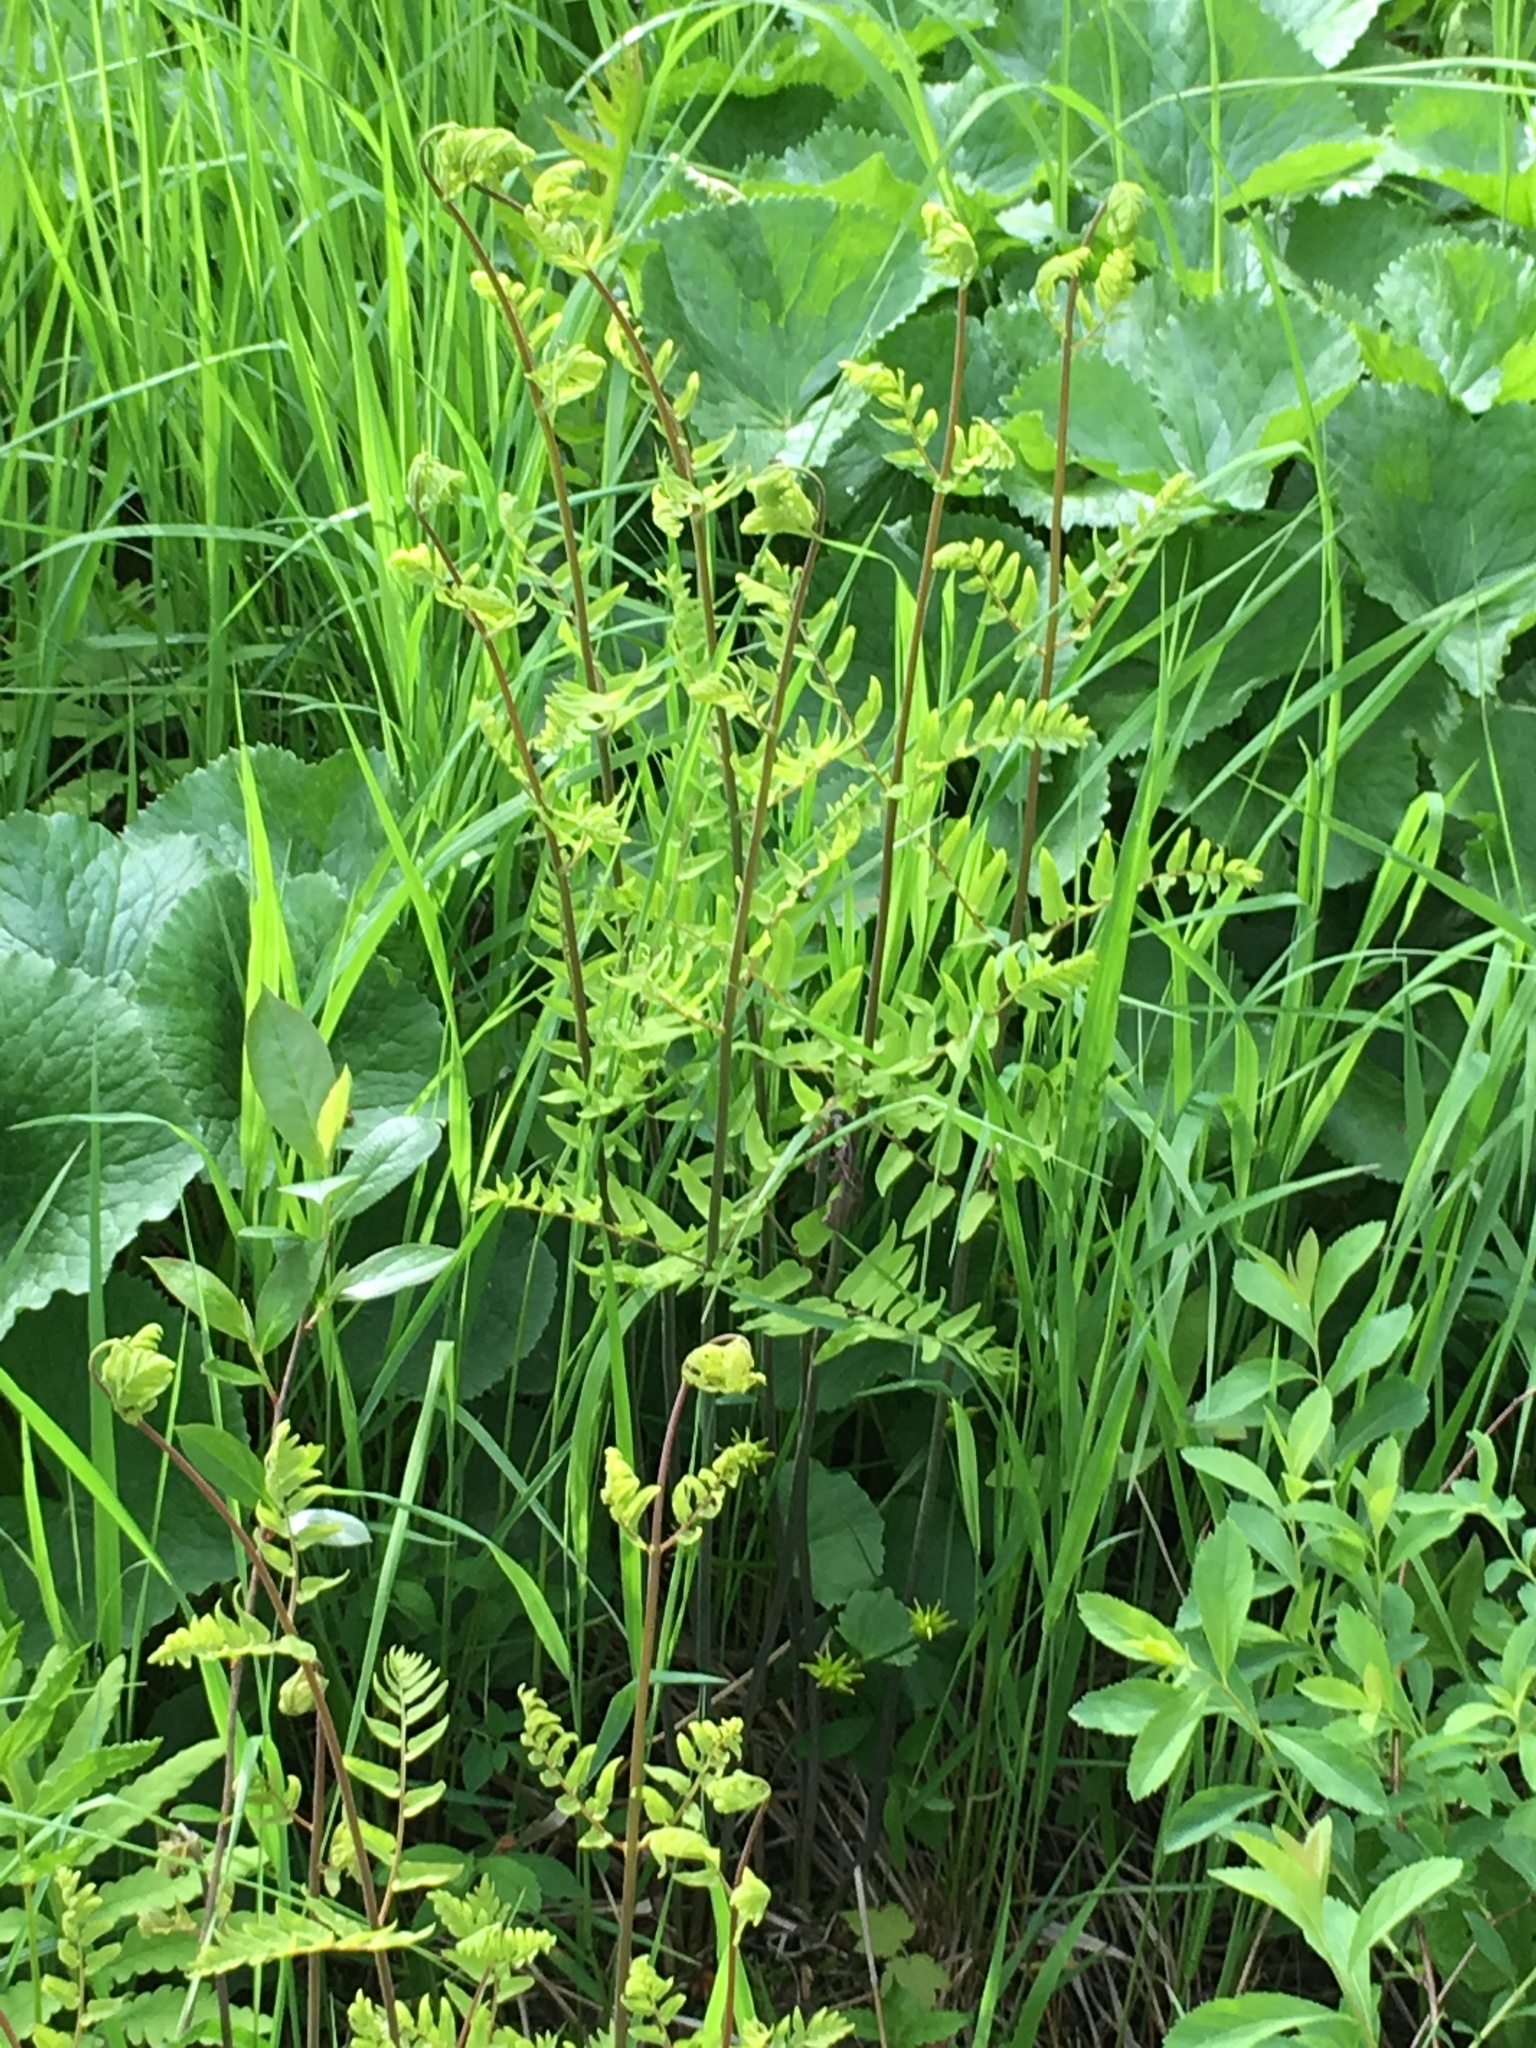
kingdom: Plantae
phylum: Tracheophyta
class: Polypodiopsida
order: Osmundales
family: Osmundaceae
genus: Osmunda
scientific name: Osmunda spectabilis
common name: American royal fern
